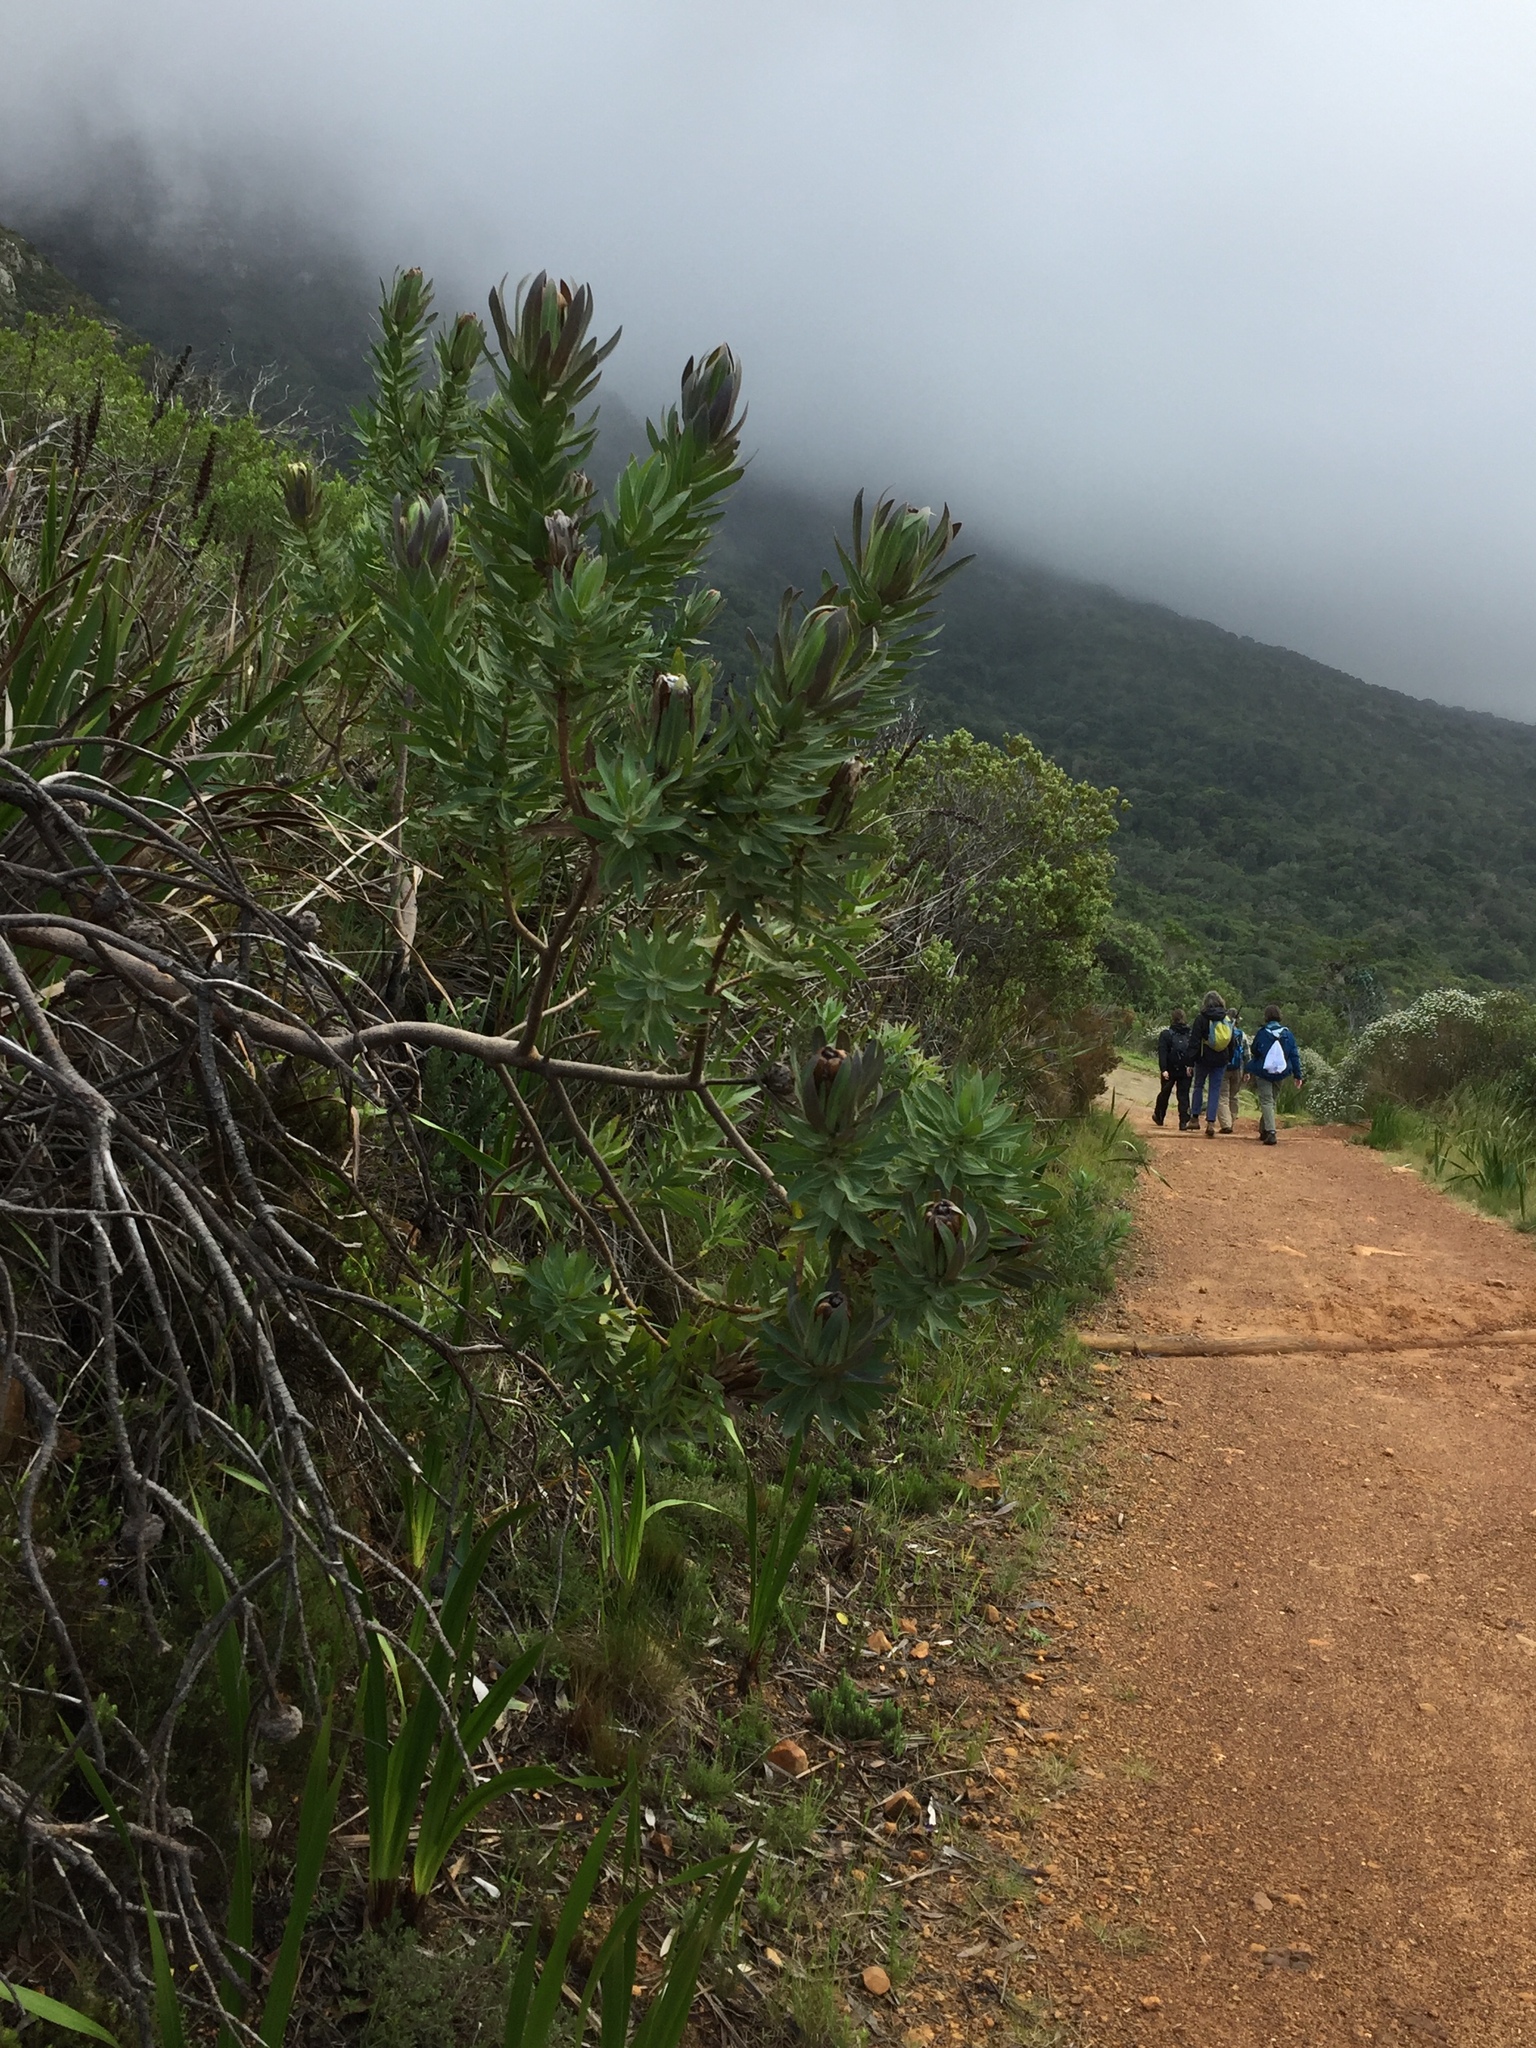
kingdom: Plantae
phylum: Tracheophyta
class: Magnoliopsida
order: Proteales
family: Proteaceae
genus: Protea
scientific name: Protea coronata
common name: Green sugarbush
